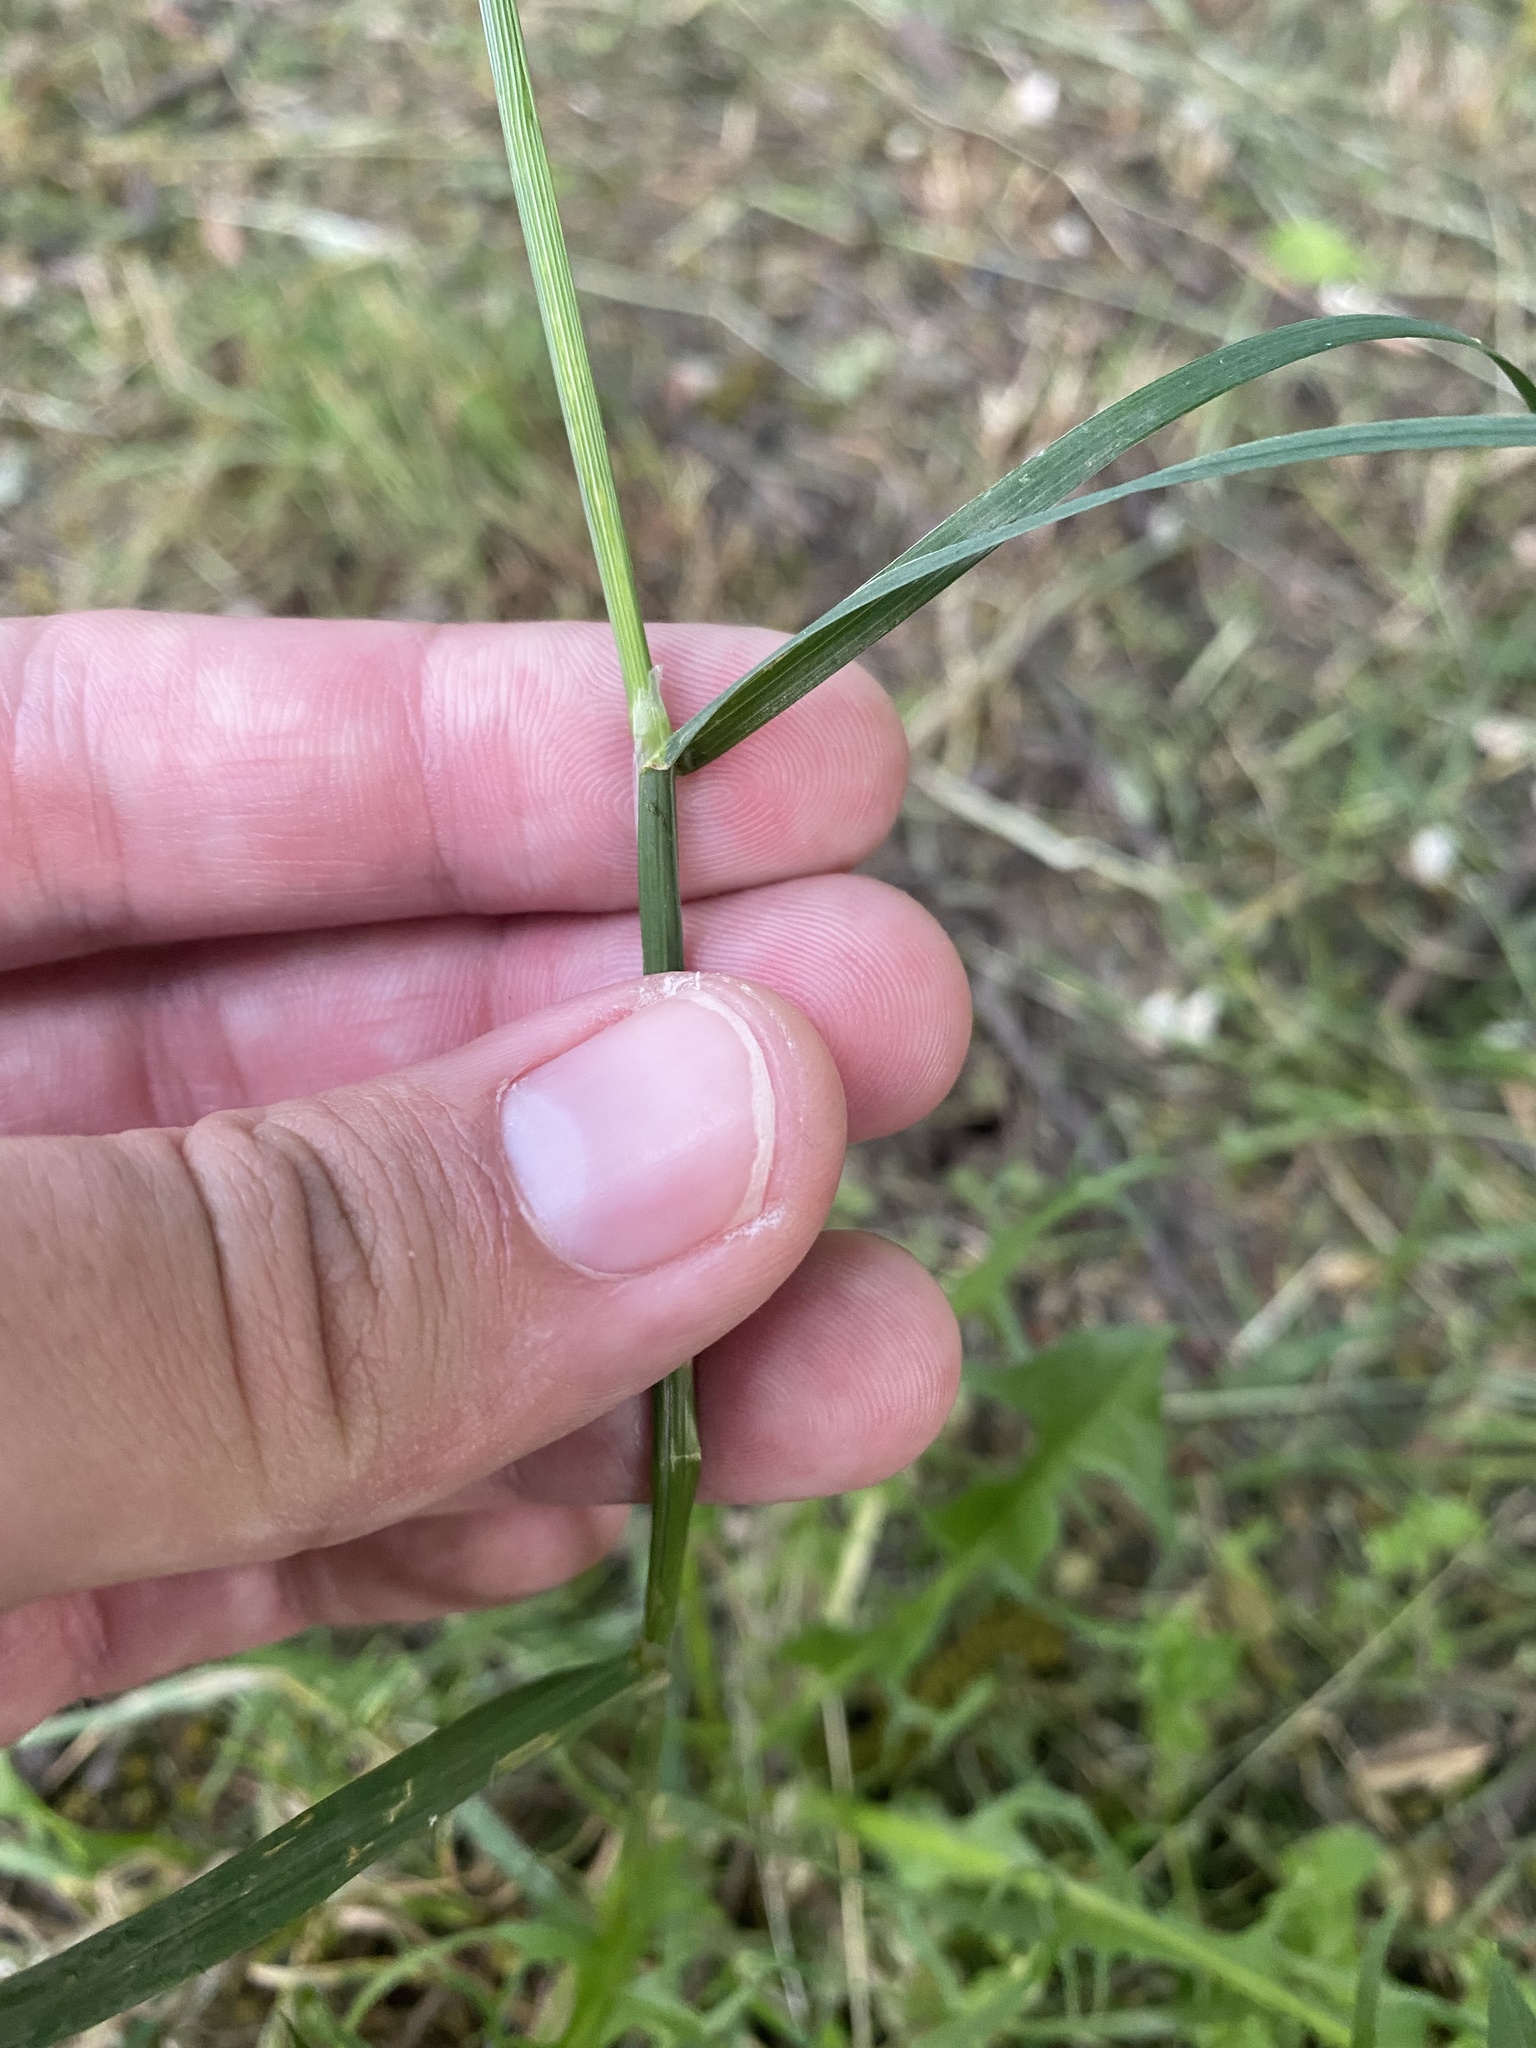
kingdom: Plantae
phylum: Tracheophyta
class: Liliopsida
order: Poales
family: Poaceae
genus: Poa
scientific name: Poa pratensis
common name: Kentucky bluegrass
